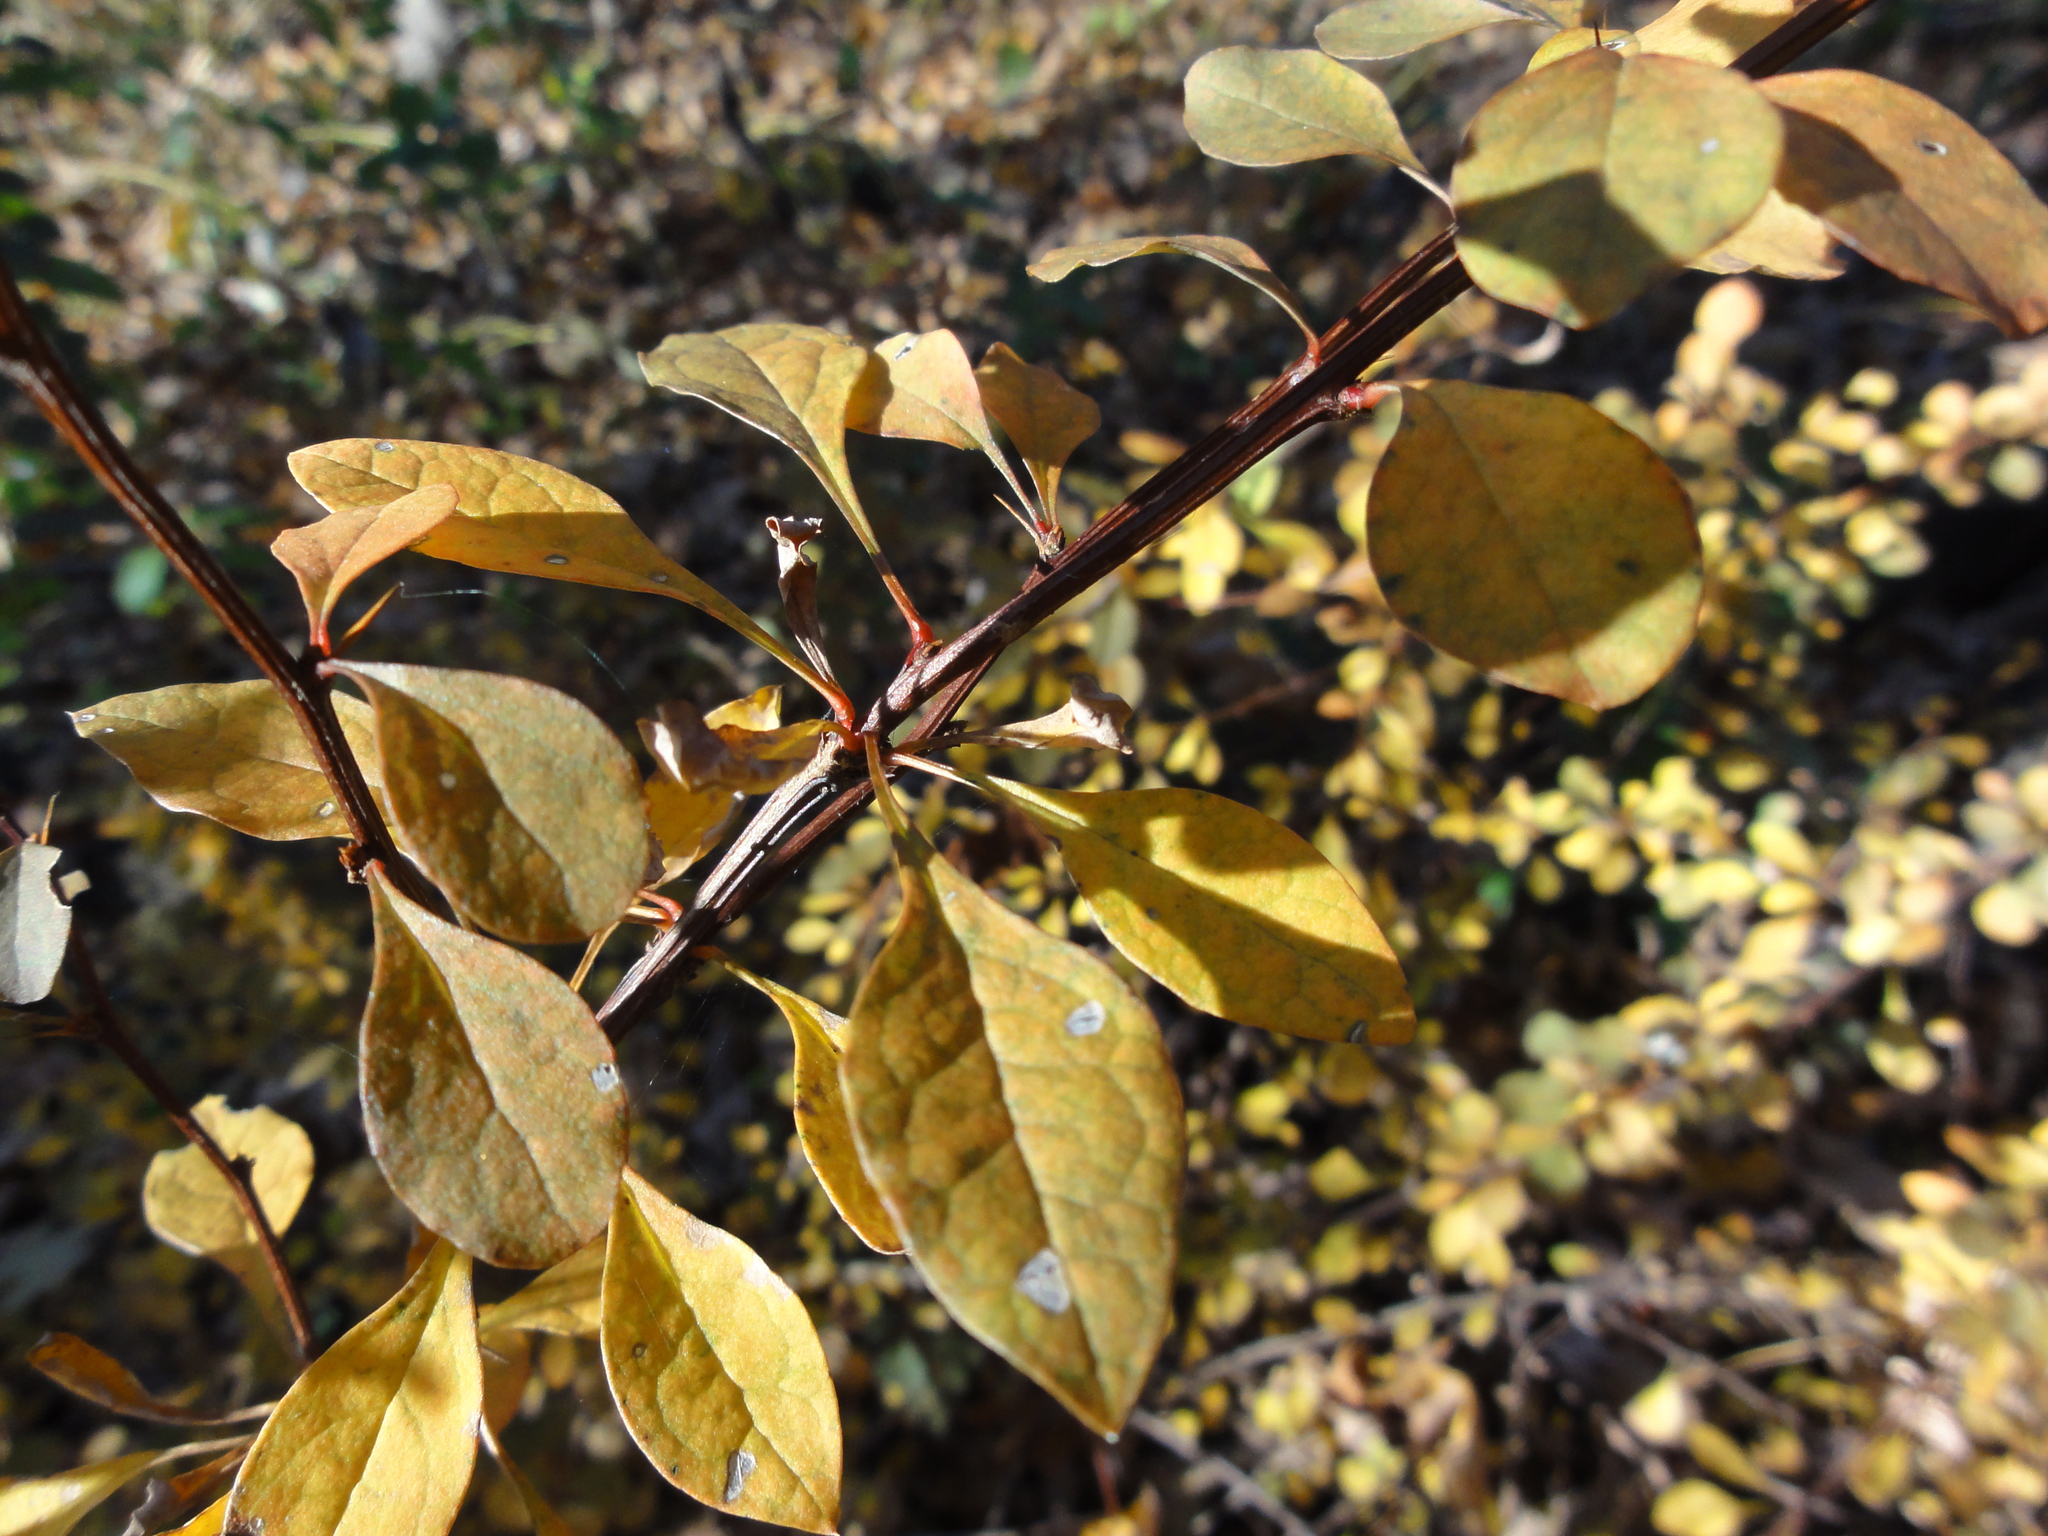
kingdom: Plantae
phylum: Tracheophyta
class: Magnoliopsida
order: Ranunculales
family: Berberidaceae
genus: Berberis
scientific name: Berberis thunbergii
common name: Japanese barberry
